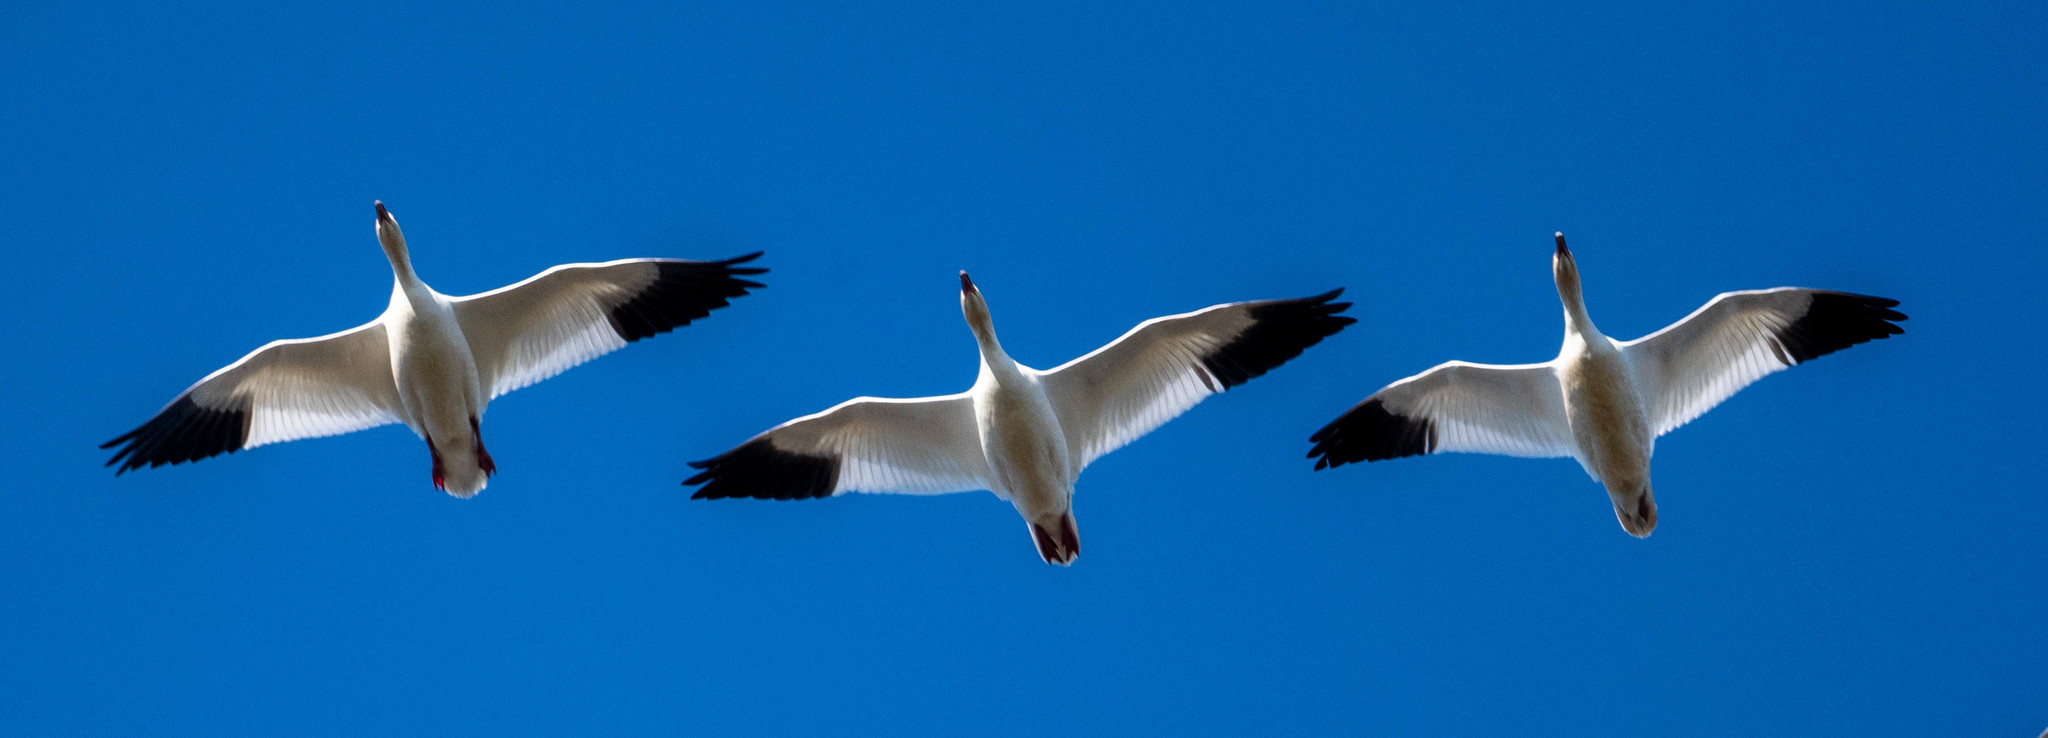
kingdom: Animalia
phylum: Chordata
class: Aves
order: Anseriformes
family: Anatidae
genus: Anser
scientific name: Anser caerulescens
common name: Snow goose
